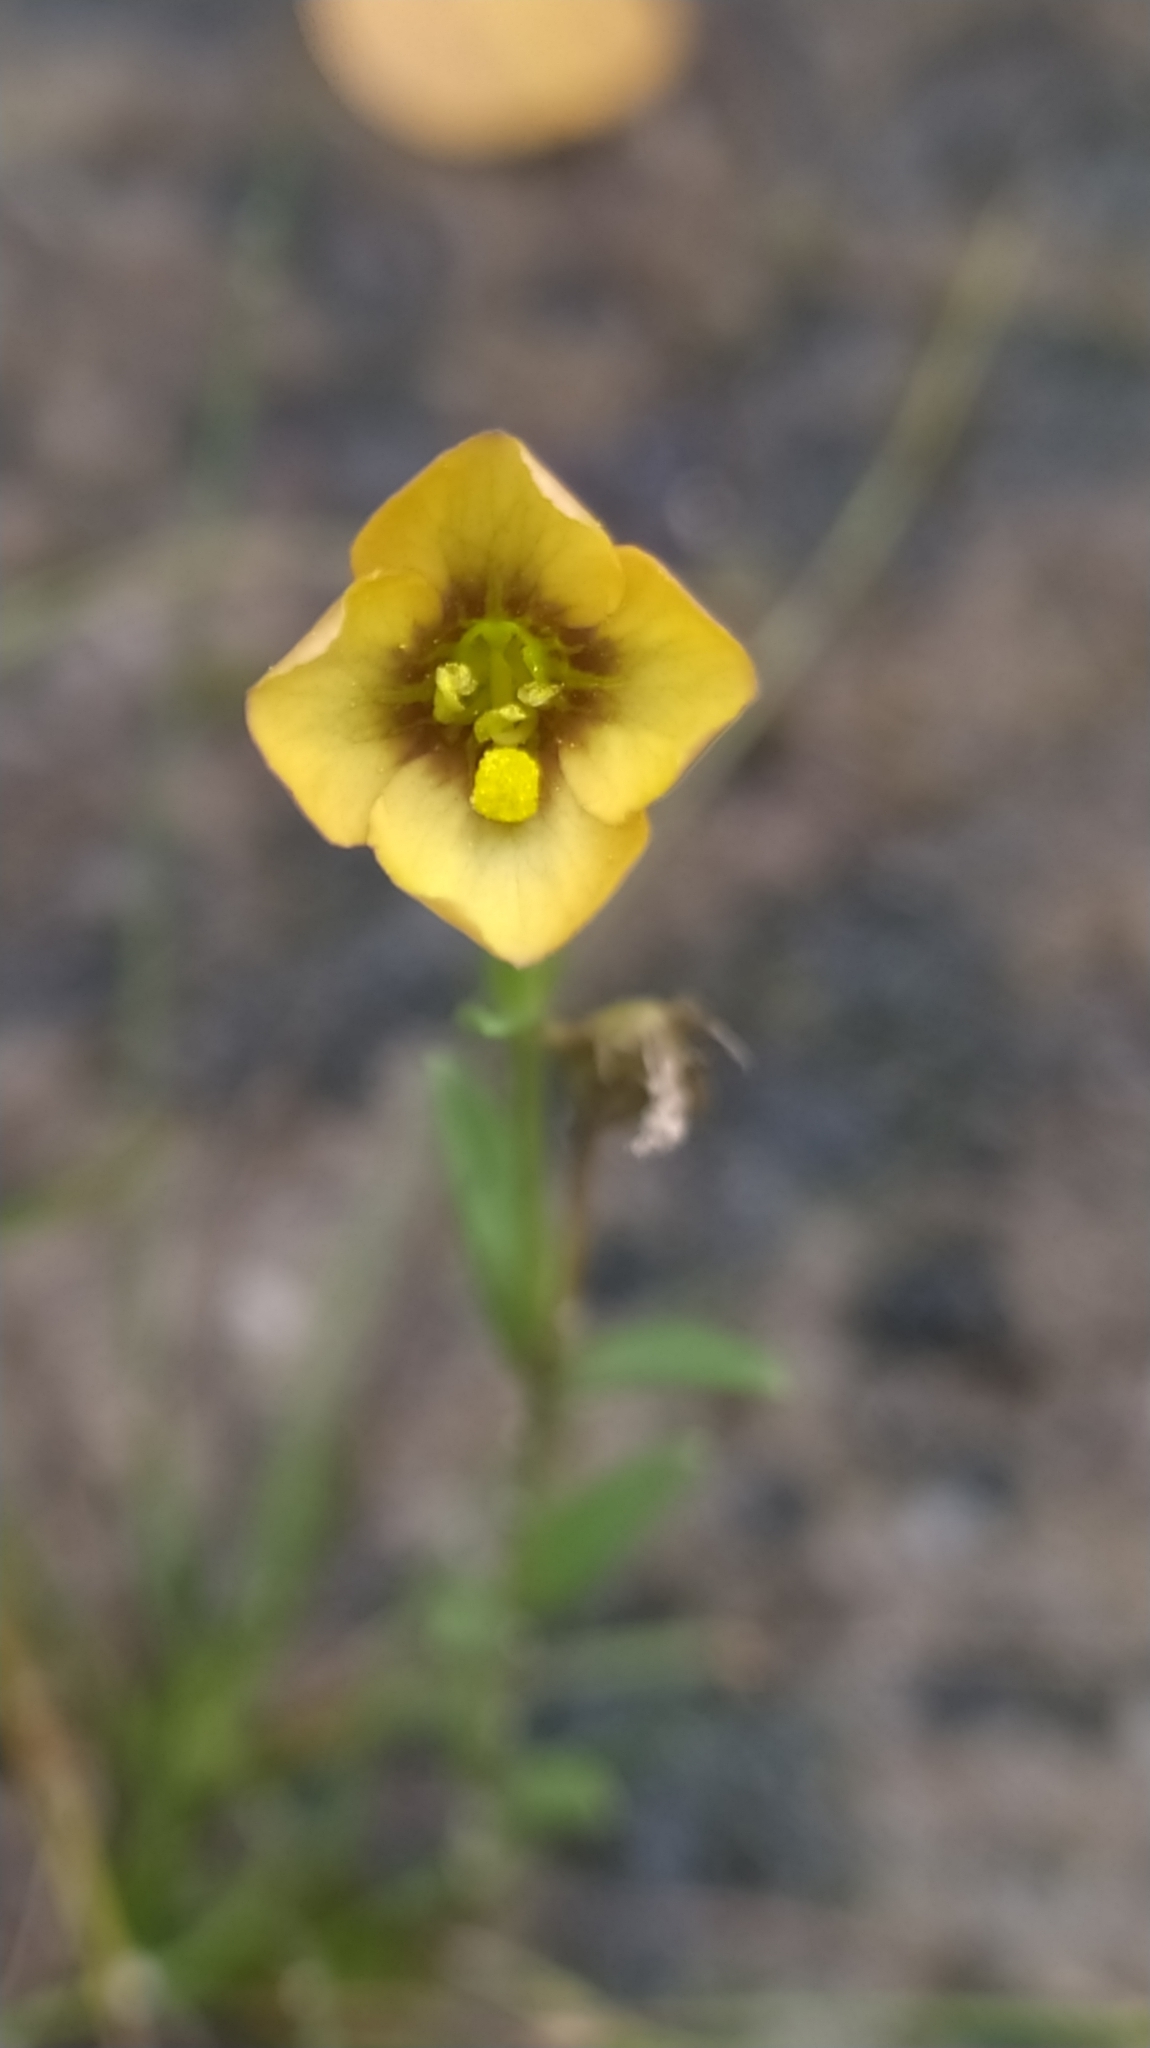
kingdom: Plantae
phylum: Tracheophyta
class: Magnoliopsida
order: Gentianales
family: Gentianaceae
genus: Schultesia
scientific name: Schultesia guianensis
